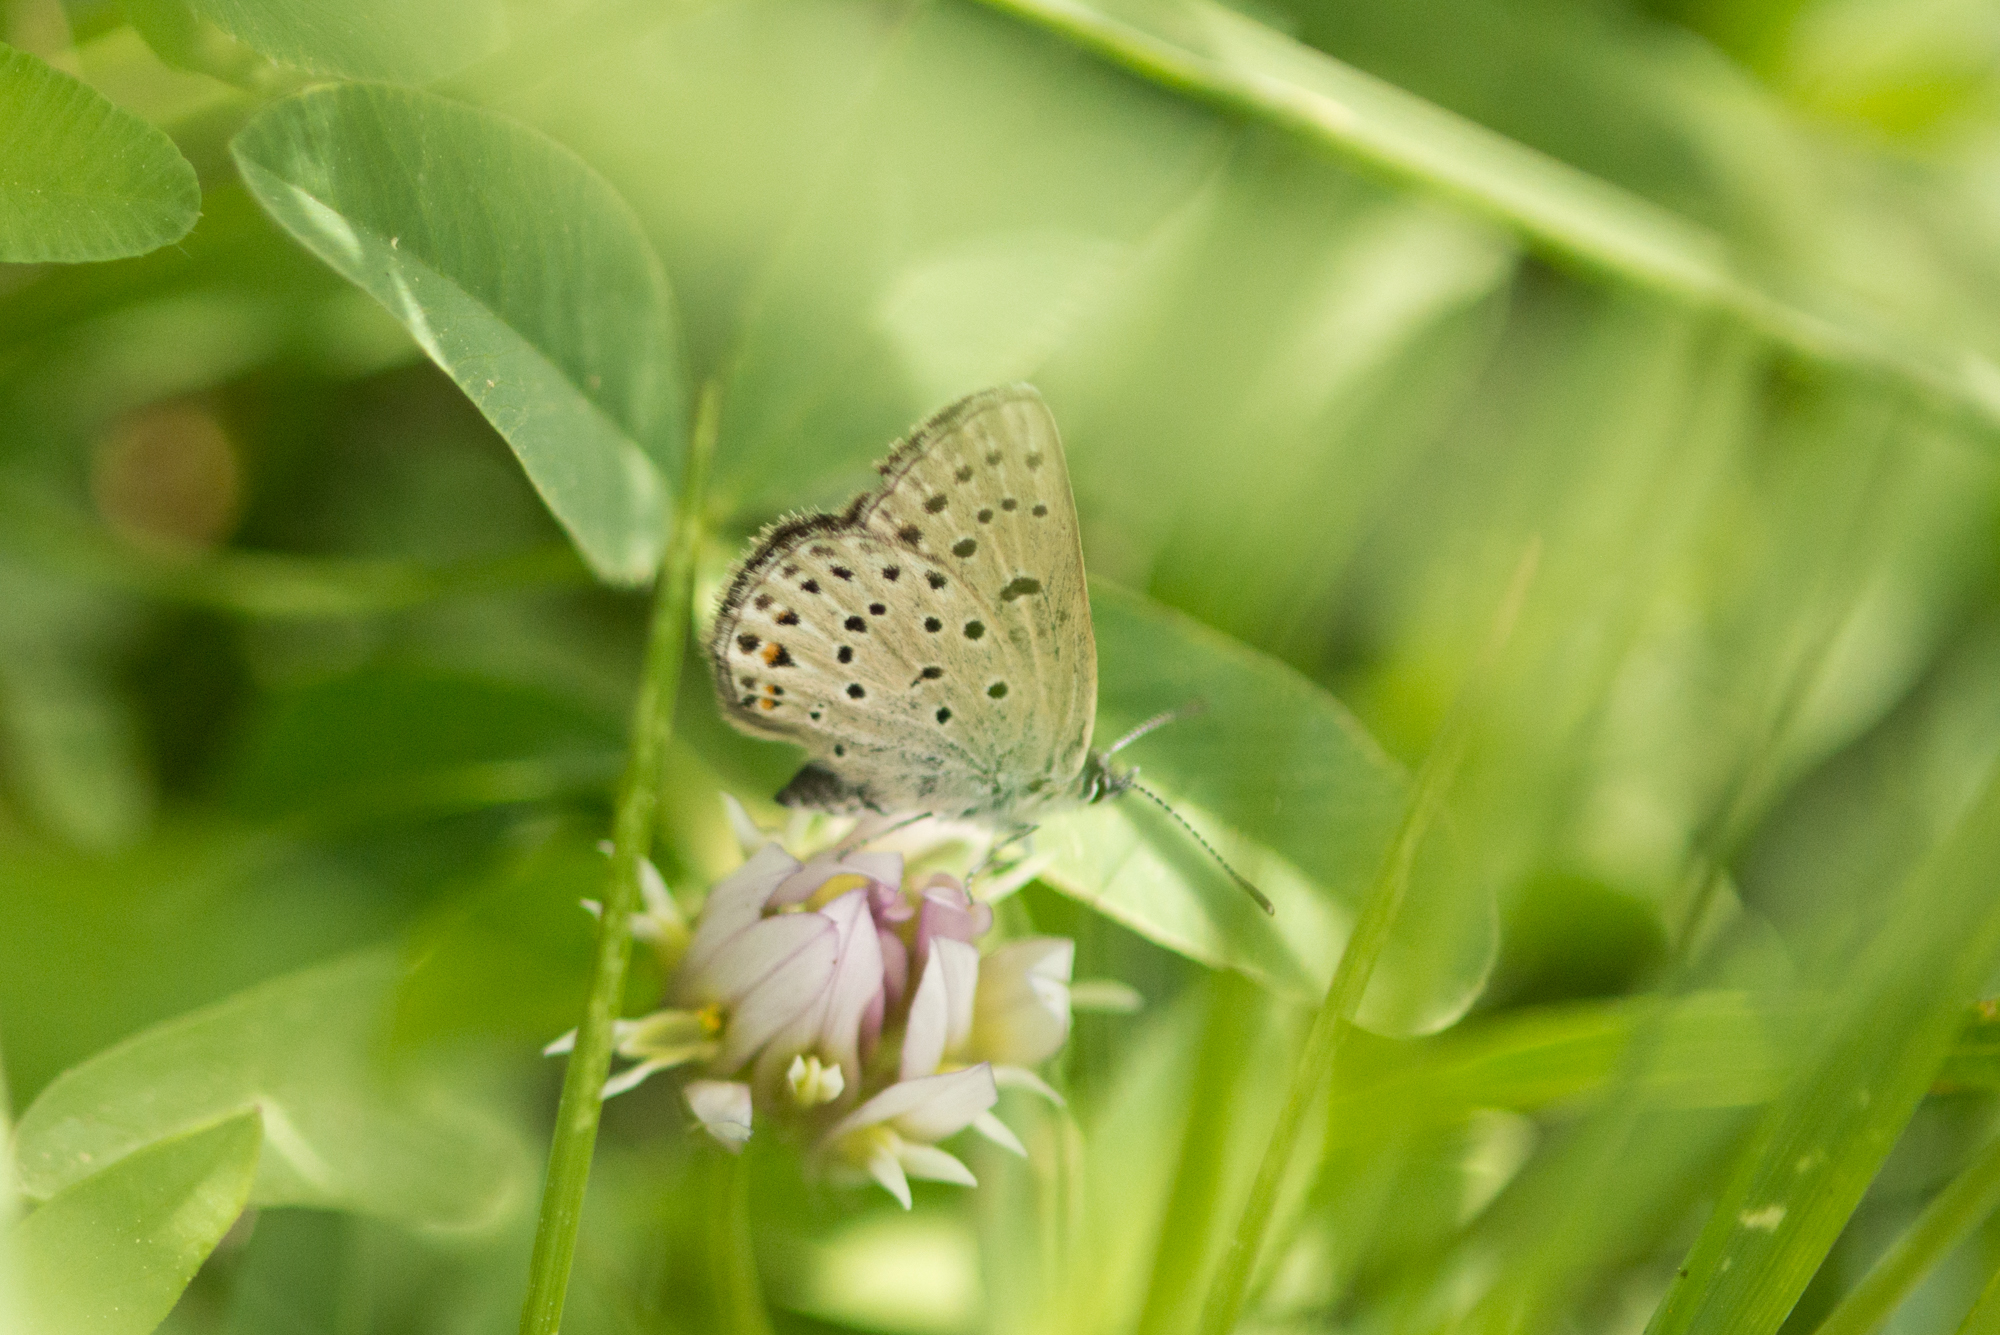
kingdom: Animalia
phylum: Arthropoda
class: Insecta
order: Lepidoptera
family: Lycaenidae
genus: Icaricia
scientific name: Icaricia saepiolus
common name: Greenish blue
